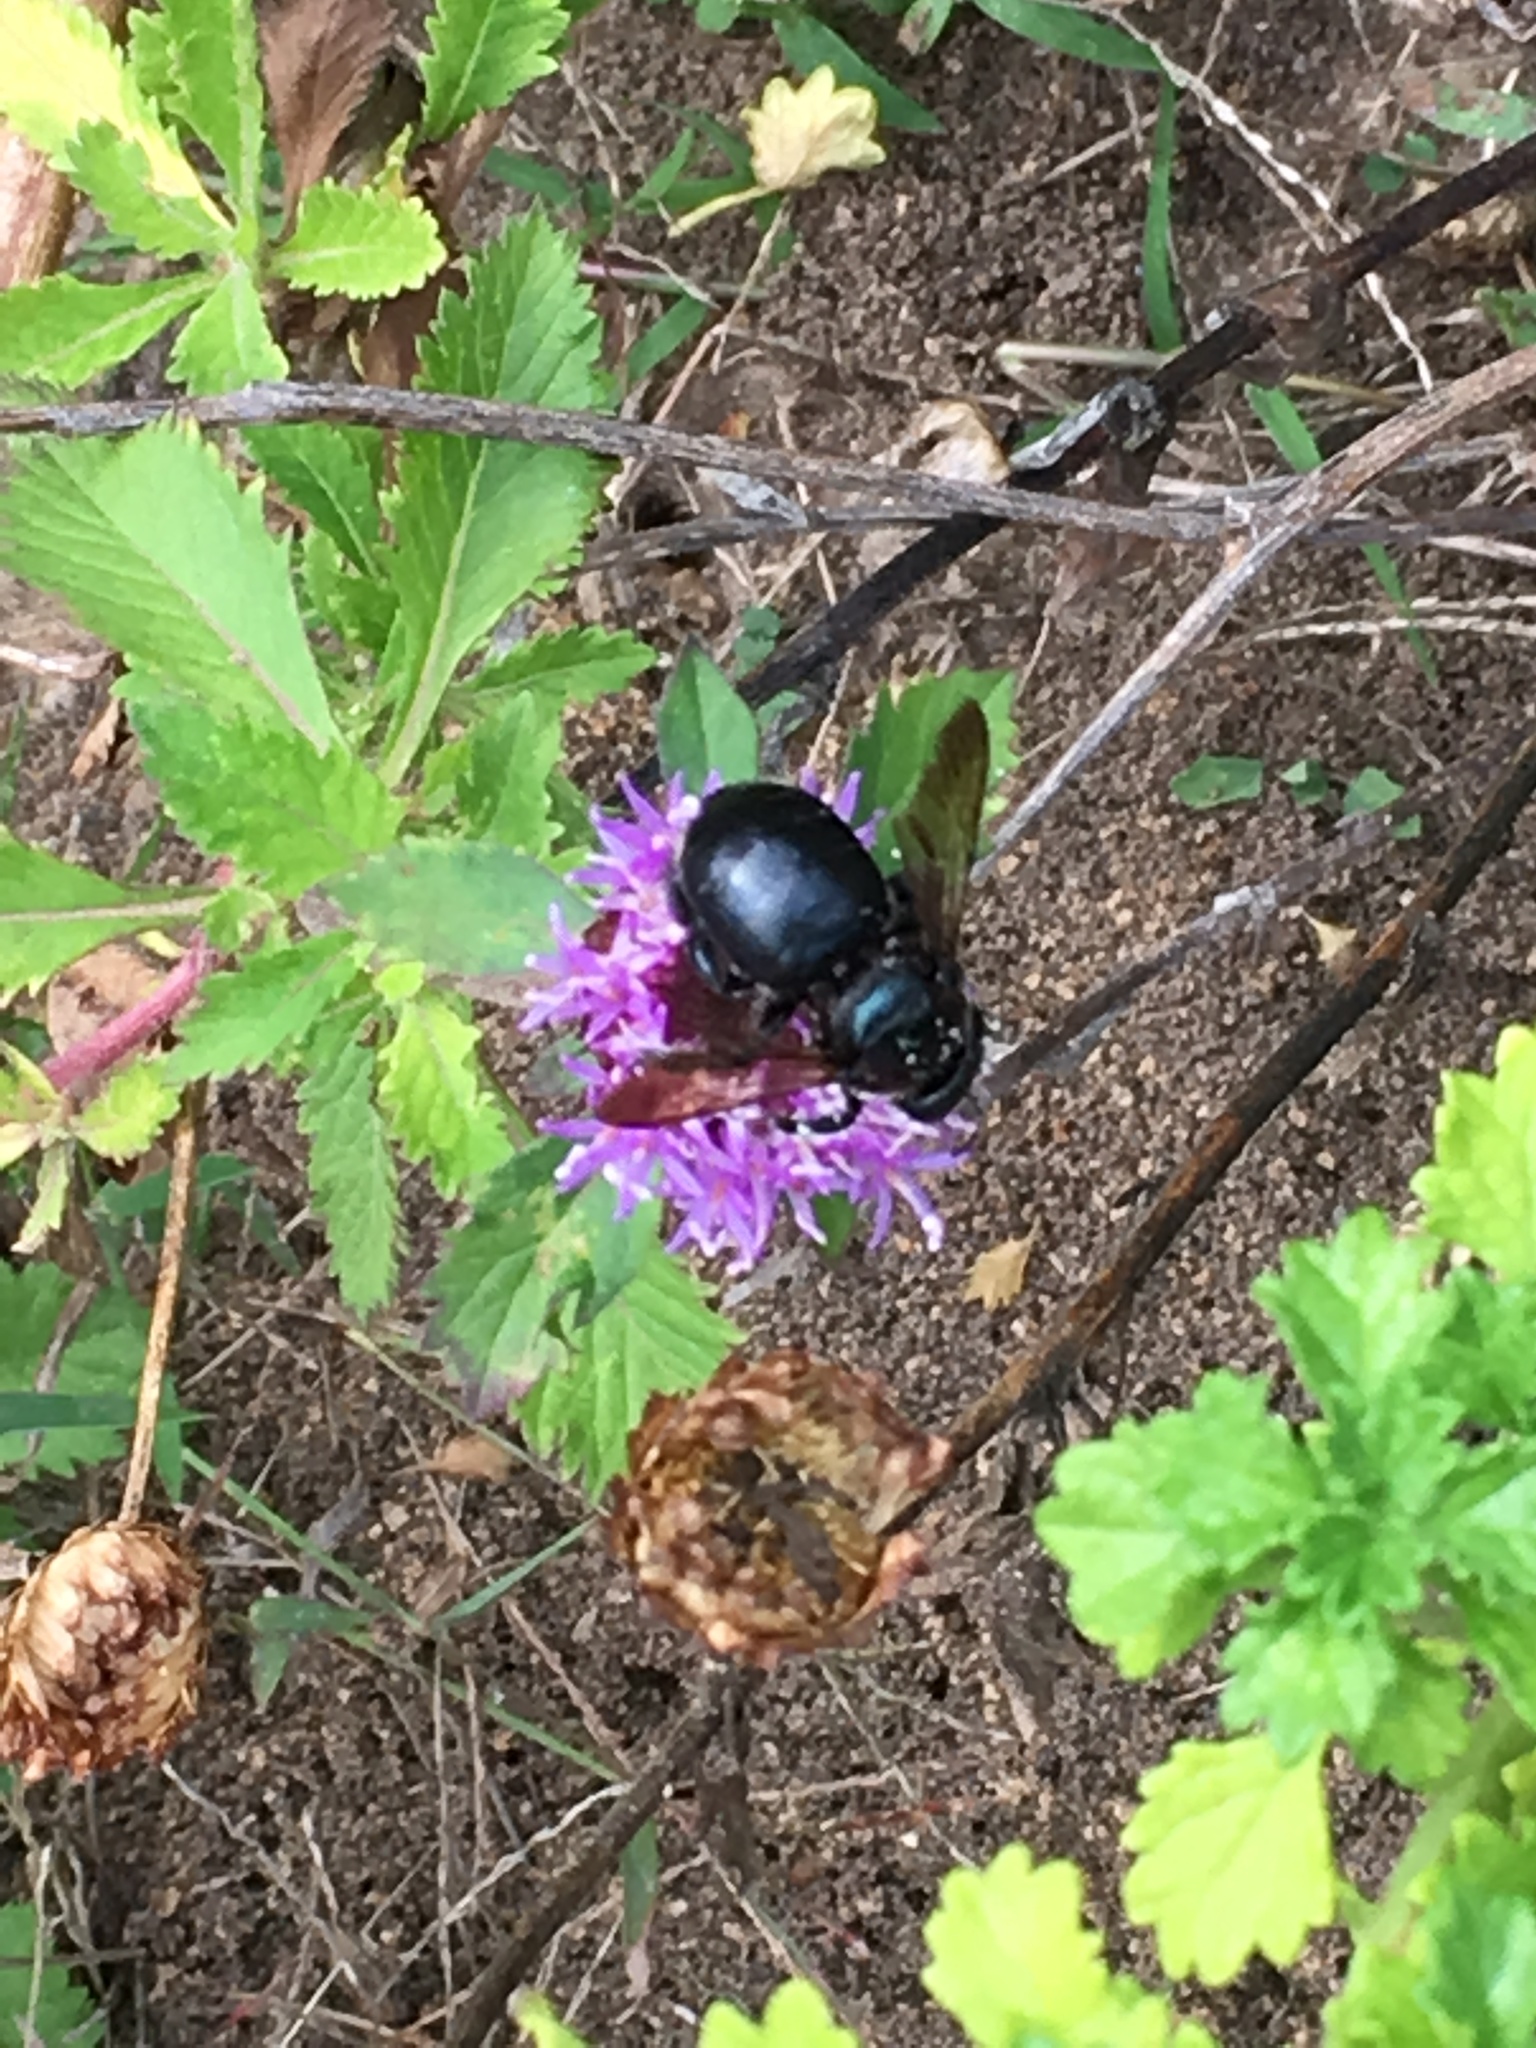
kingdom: Animalia
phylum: Arthropoda
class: Insecta
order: Hymenoptera
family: Apidae
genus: Xylocopa
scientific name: Xylocopa micans
